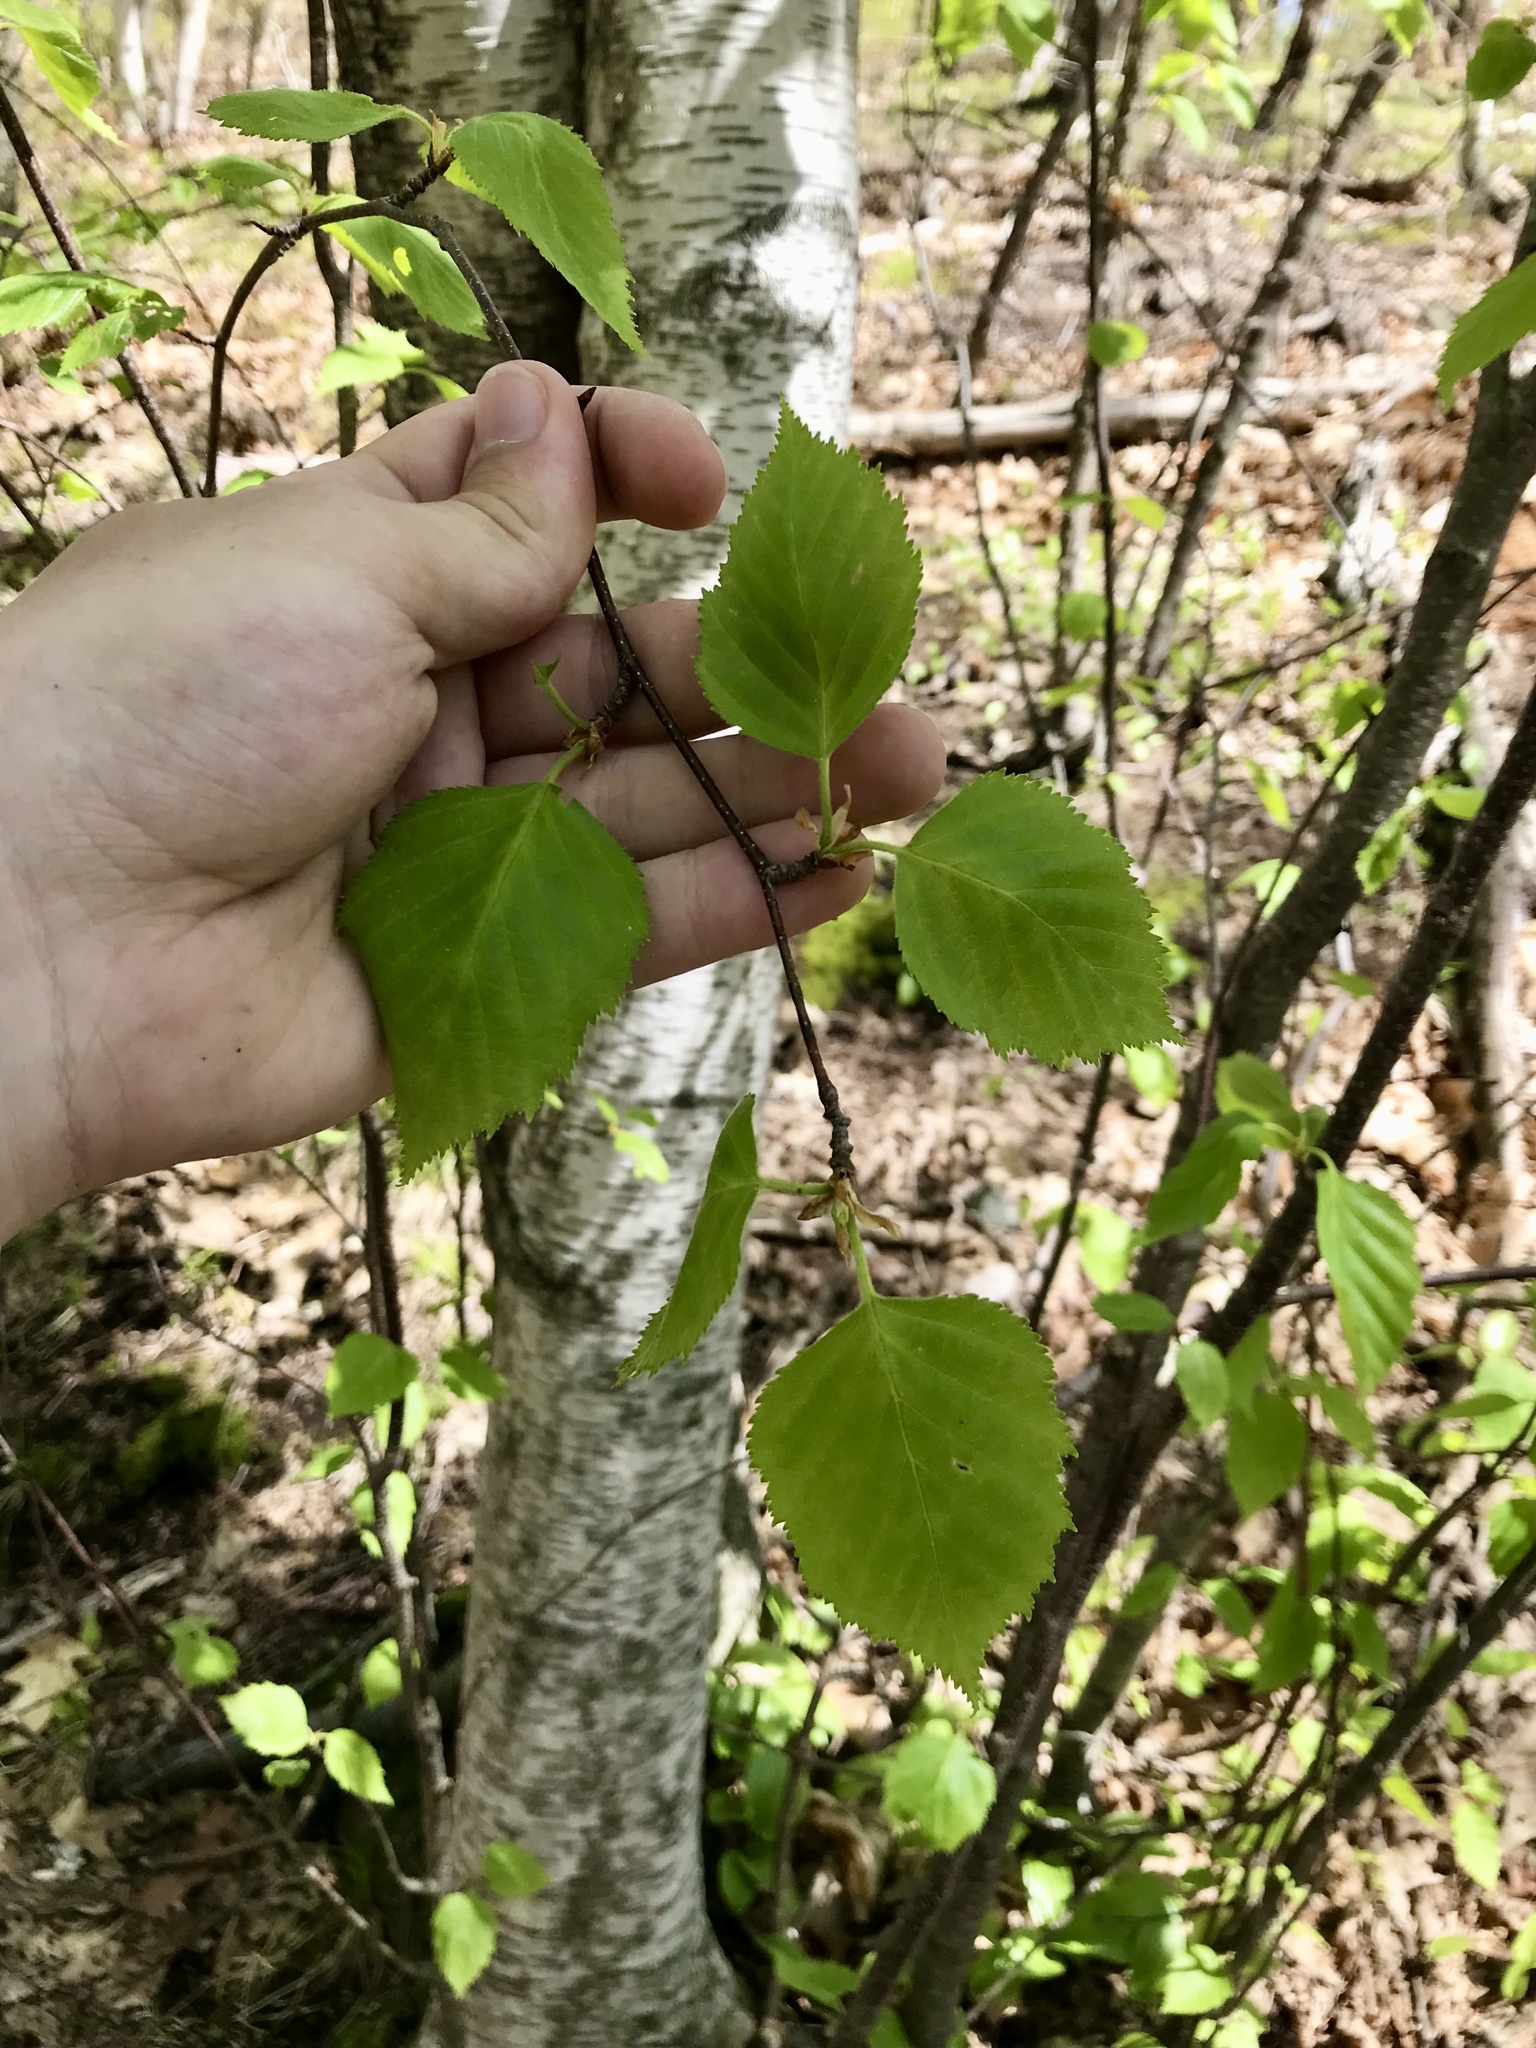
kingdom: Plantae
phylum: Tracheophyta
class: Magnoliopsida
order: Fagales
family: Betulaceae
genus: Betula
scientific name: Betula papyrifera
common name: Paper birch
